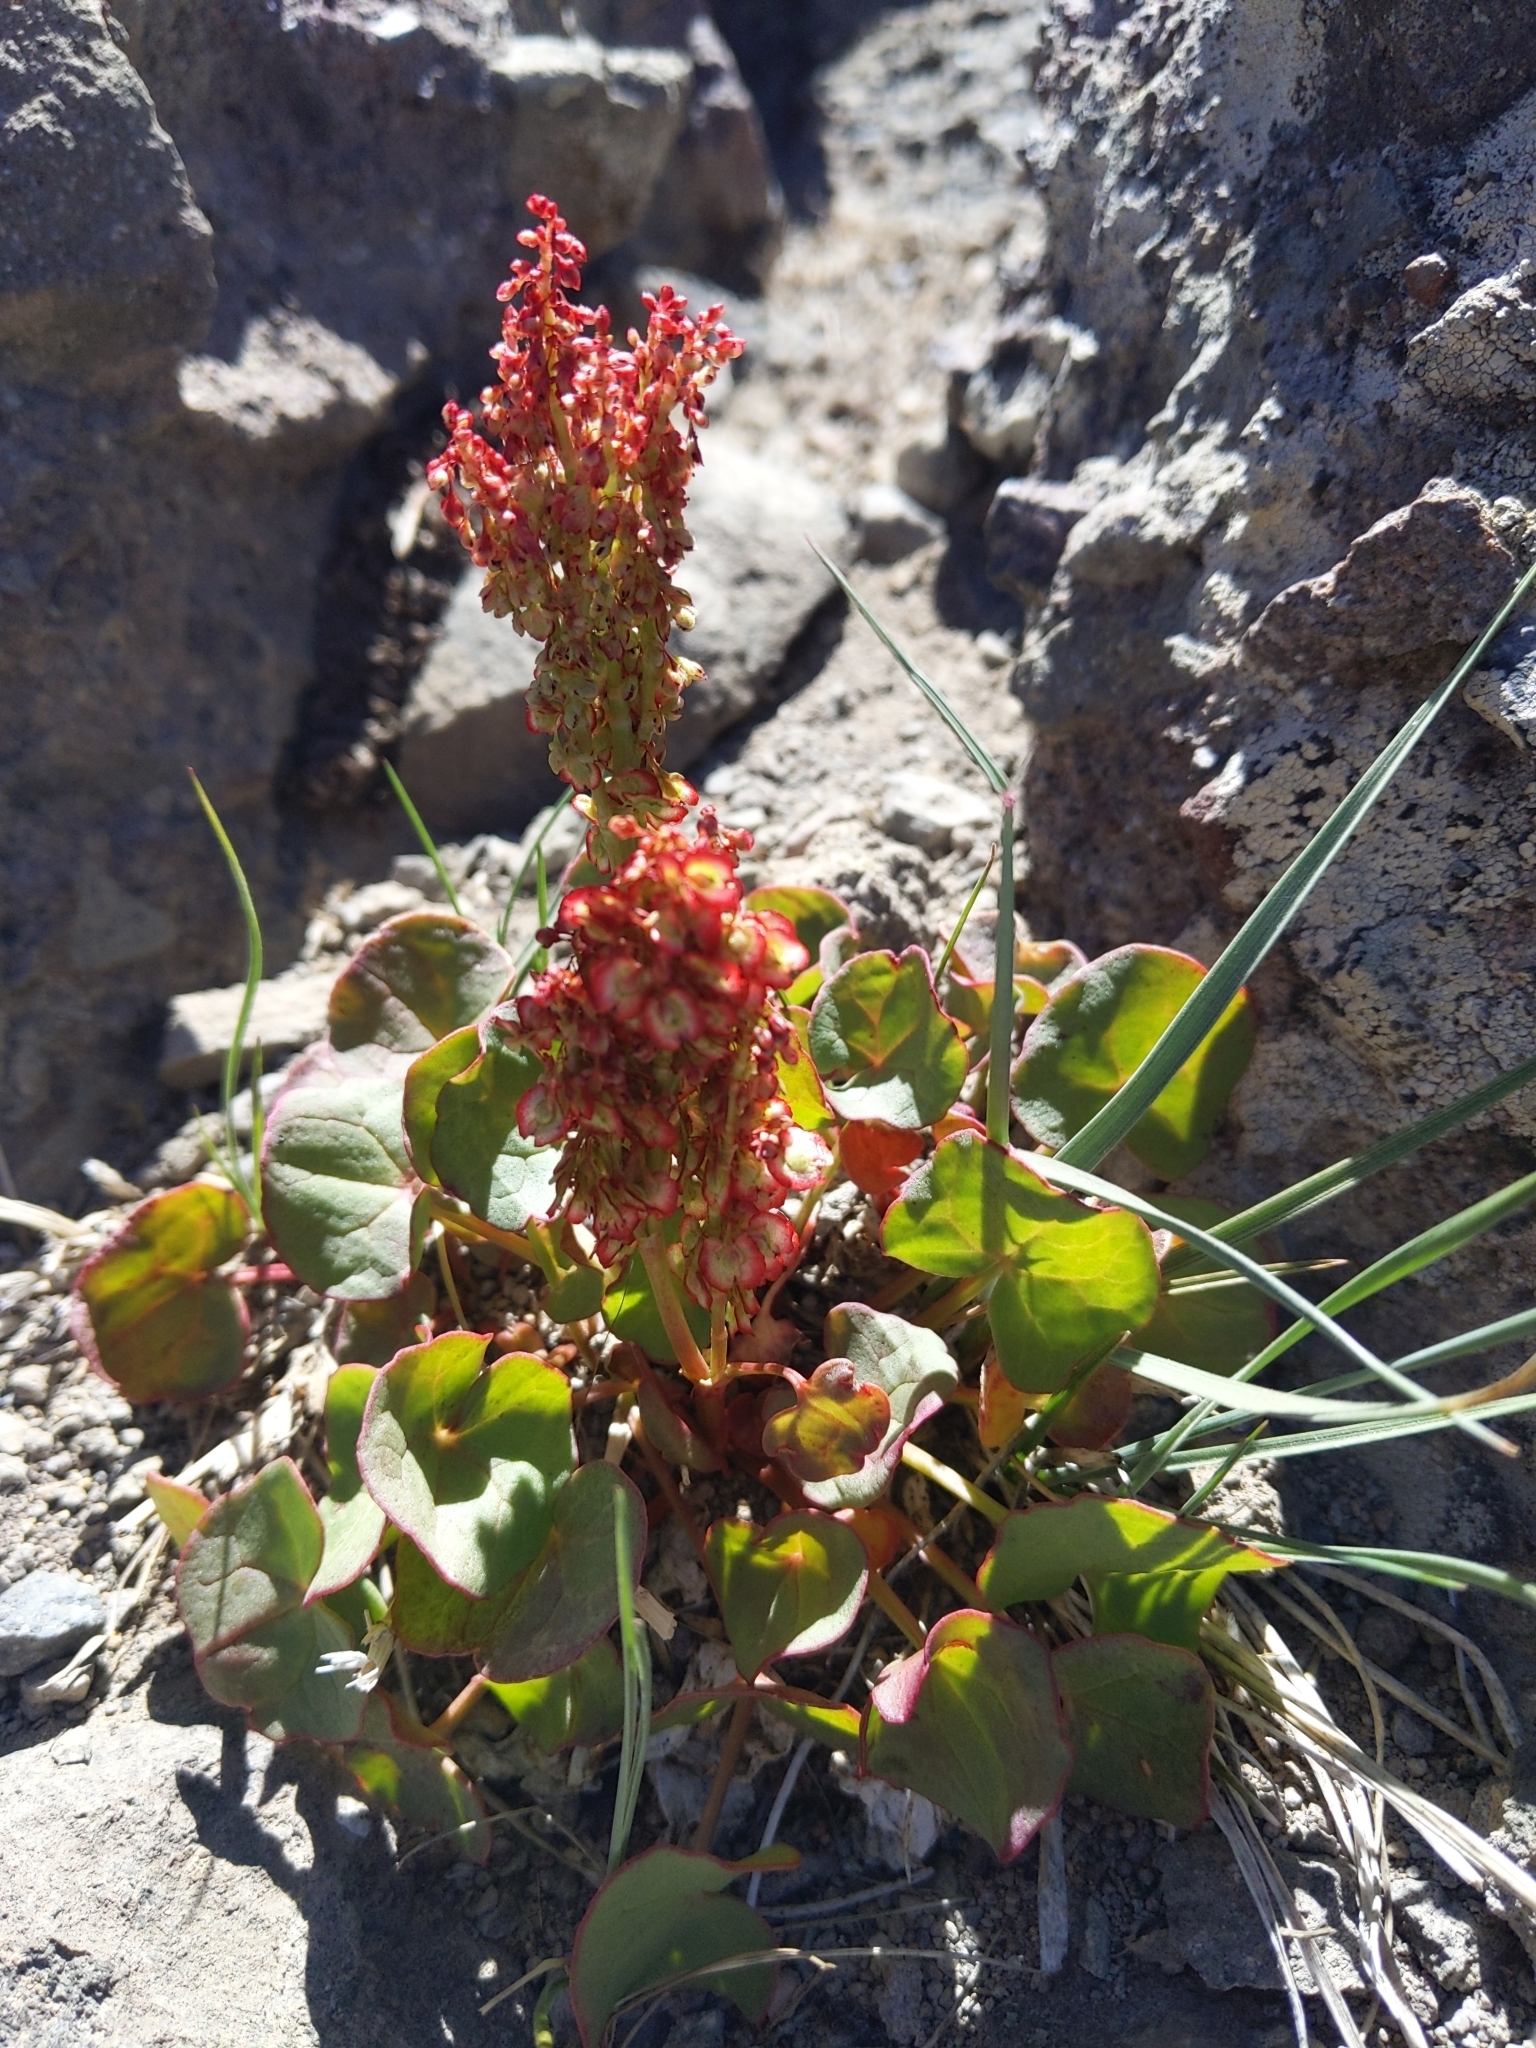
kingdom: Plantae
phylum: Tracheophyta
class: Magnoliopsida
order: Caryophyllales
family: Polygonaceae
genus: Oxyria
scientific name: Oxyria digyna
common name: Alpine mountain-sorrel
